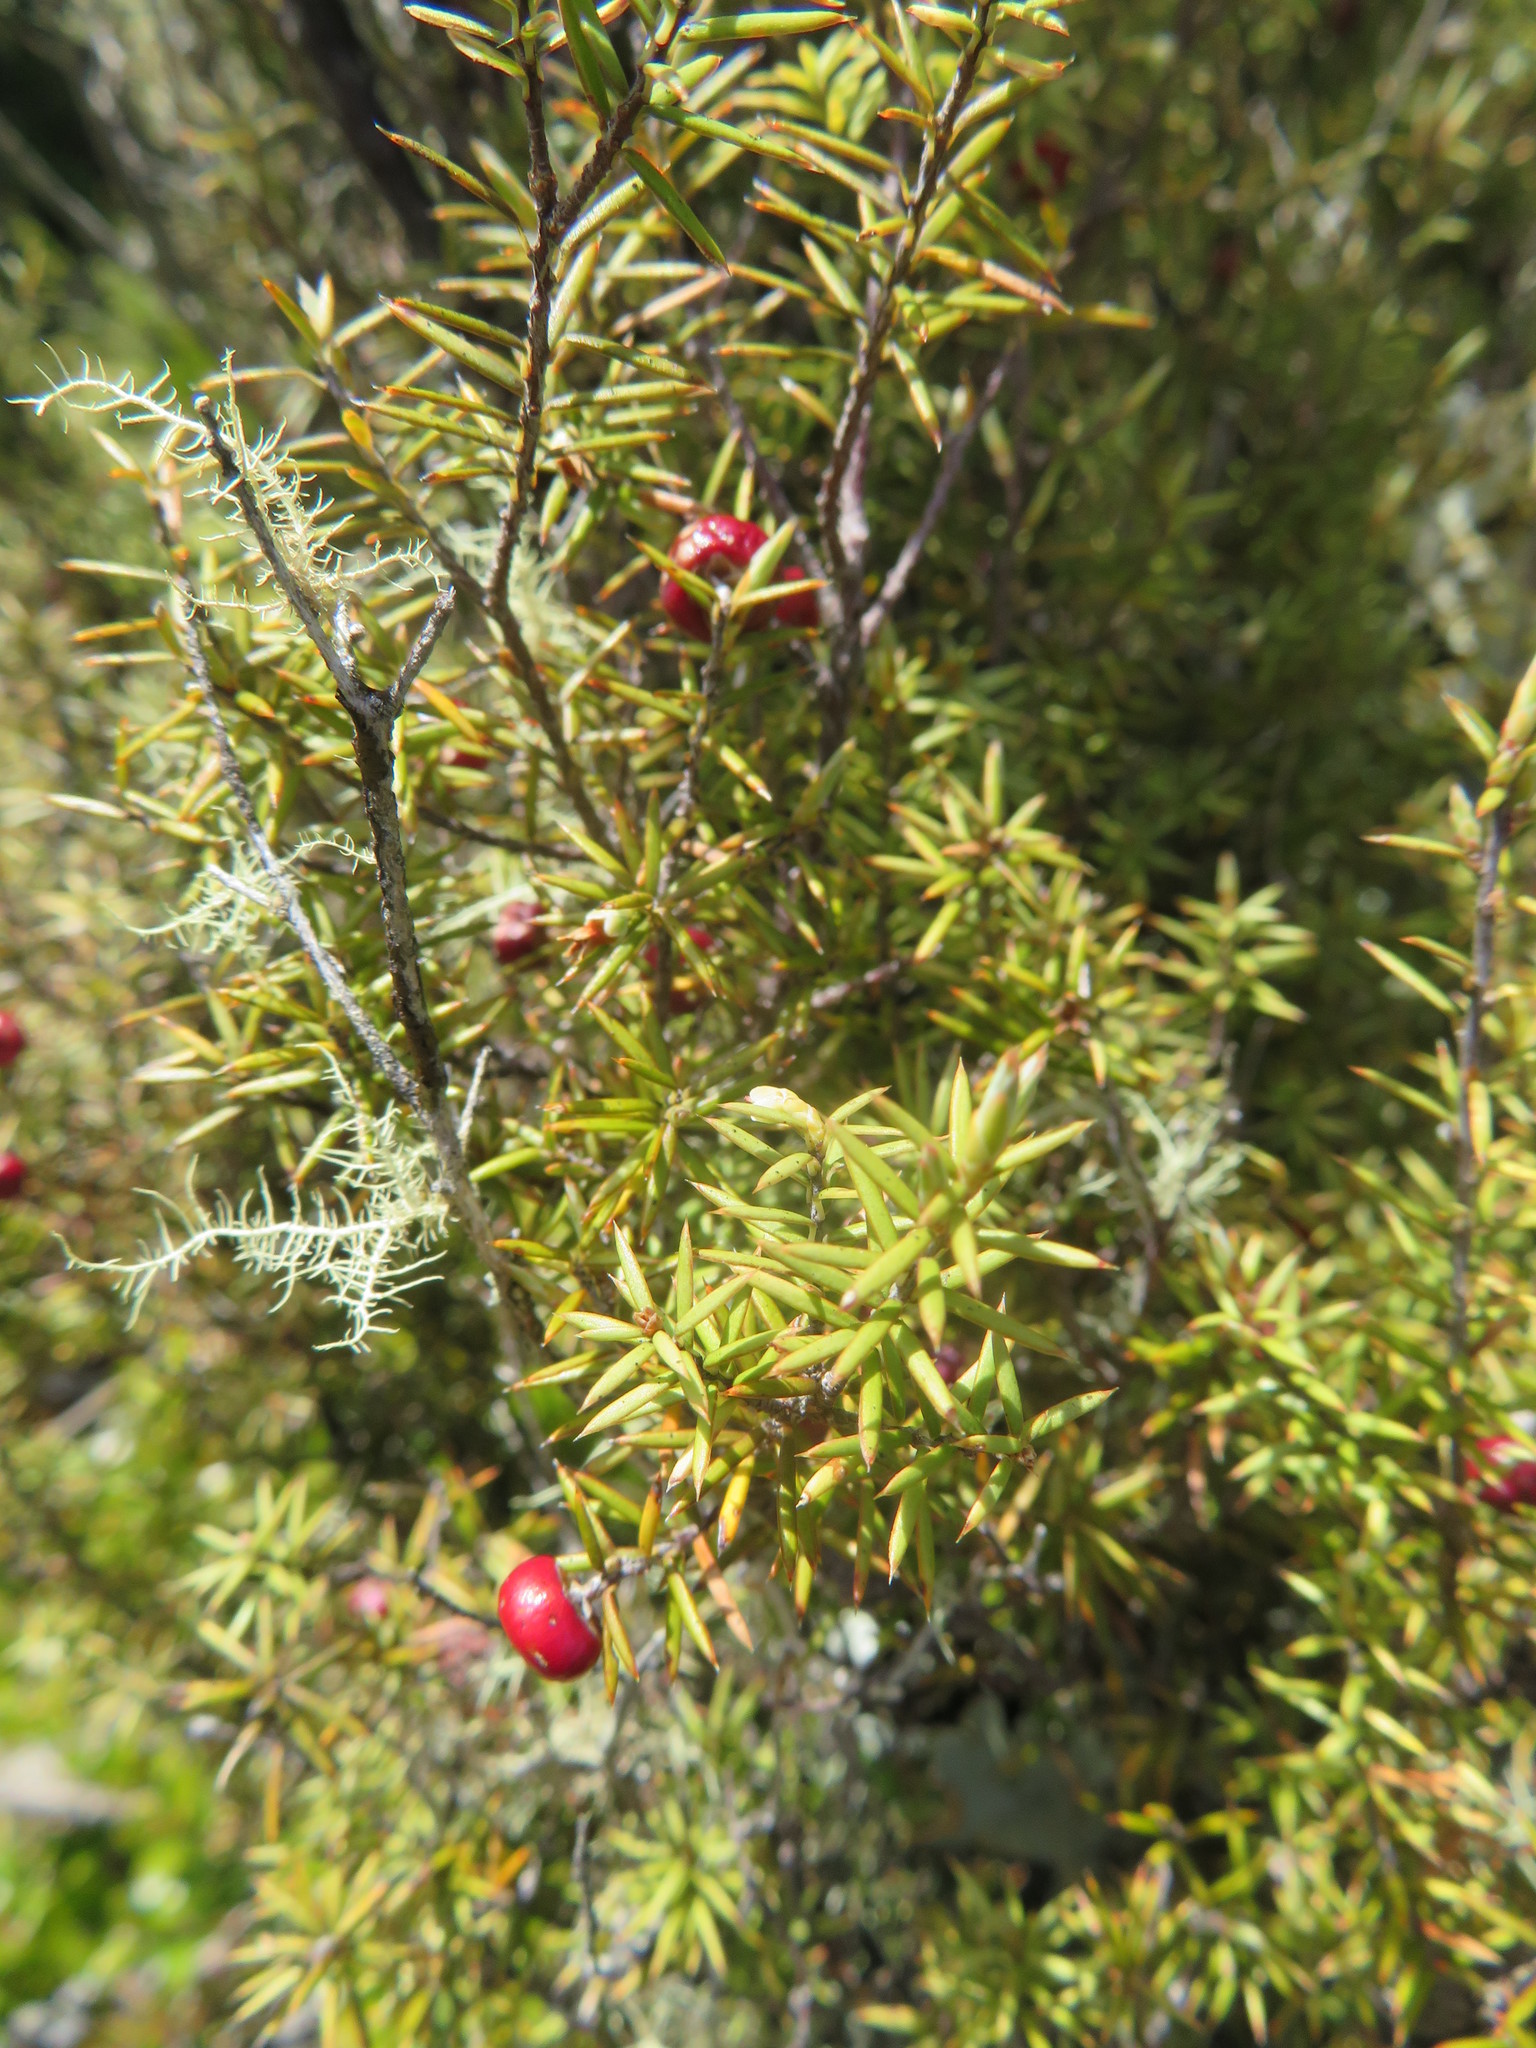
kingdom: Plantae
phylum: Tracheophyta
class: Magnoliopsida
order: Ericales
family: Ericaceae
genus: Leptecophylla
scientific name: Leptecophylla juniperina
